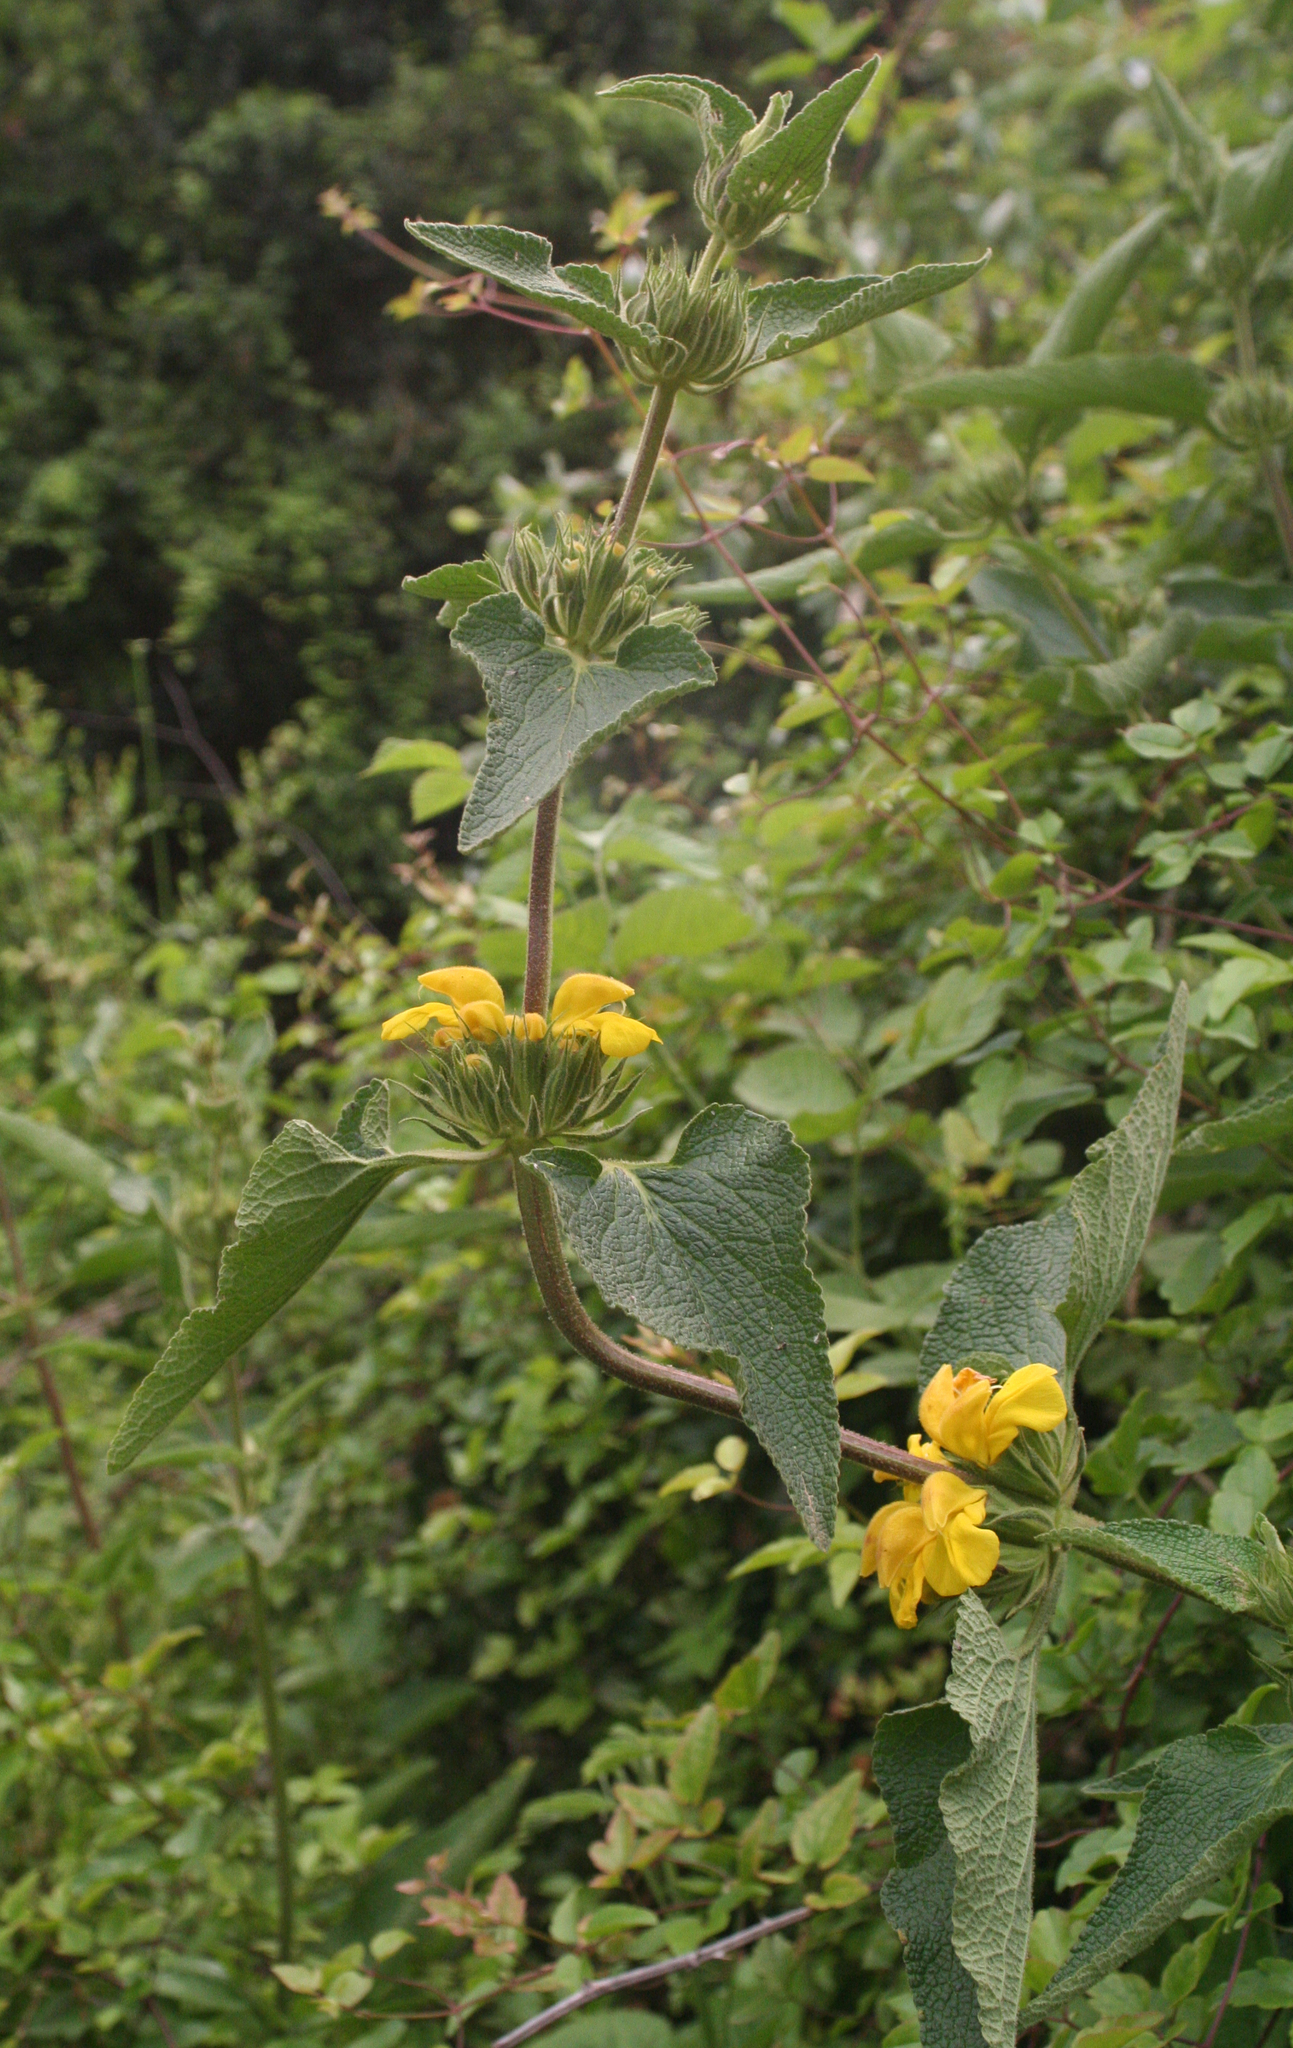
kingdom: Plantae
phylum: Tracheophyta
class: Magnoliopsida
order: Lamiales
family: Lamiaceae
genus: Phlomis
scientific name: Phlomis viscosa
